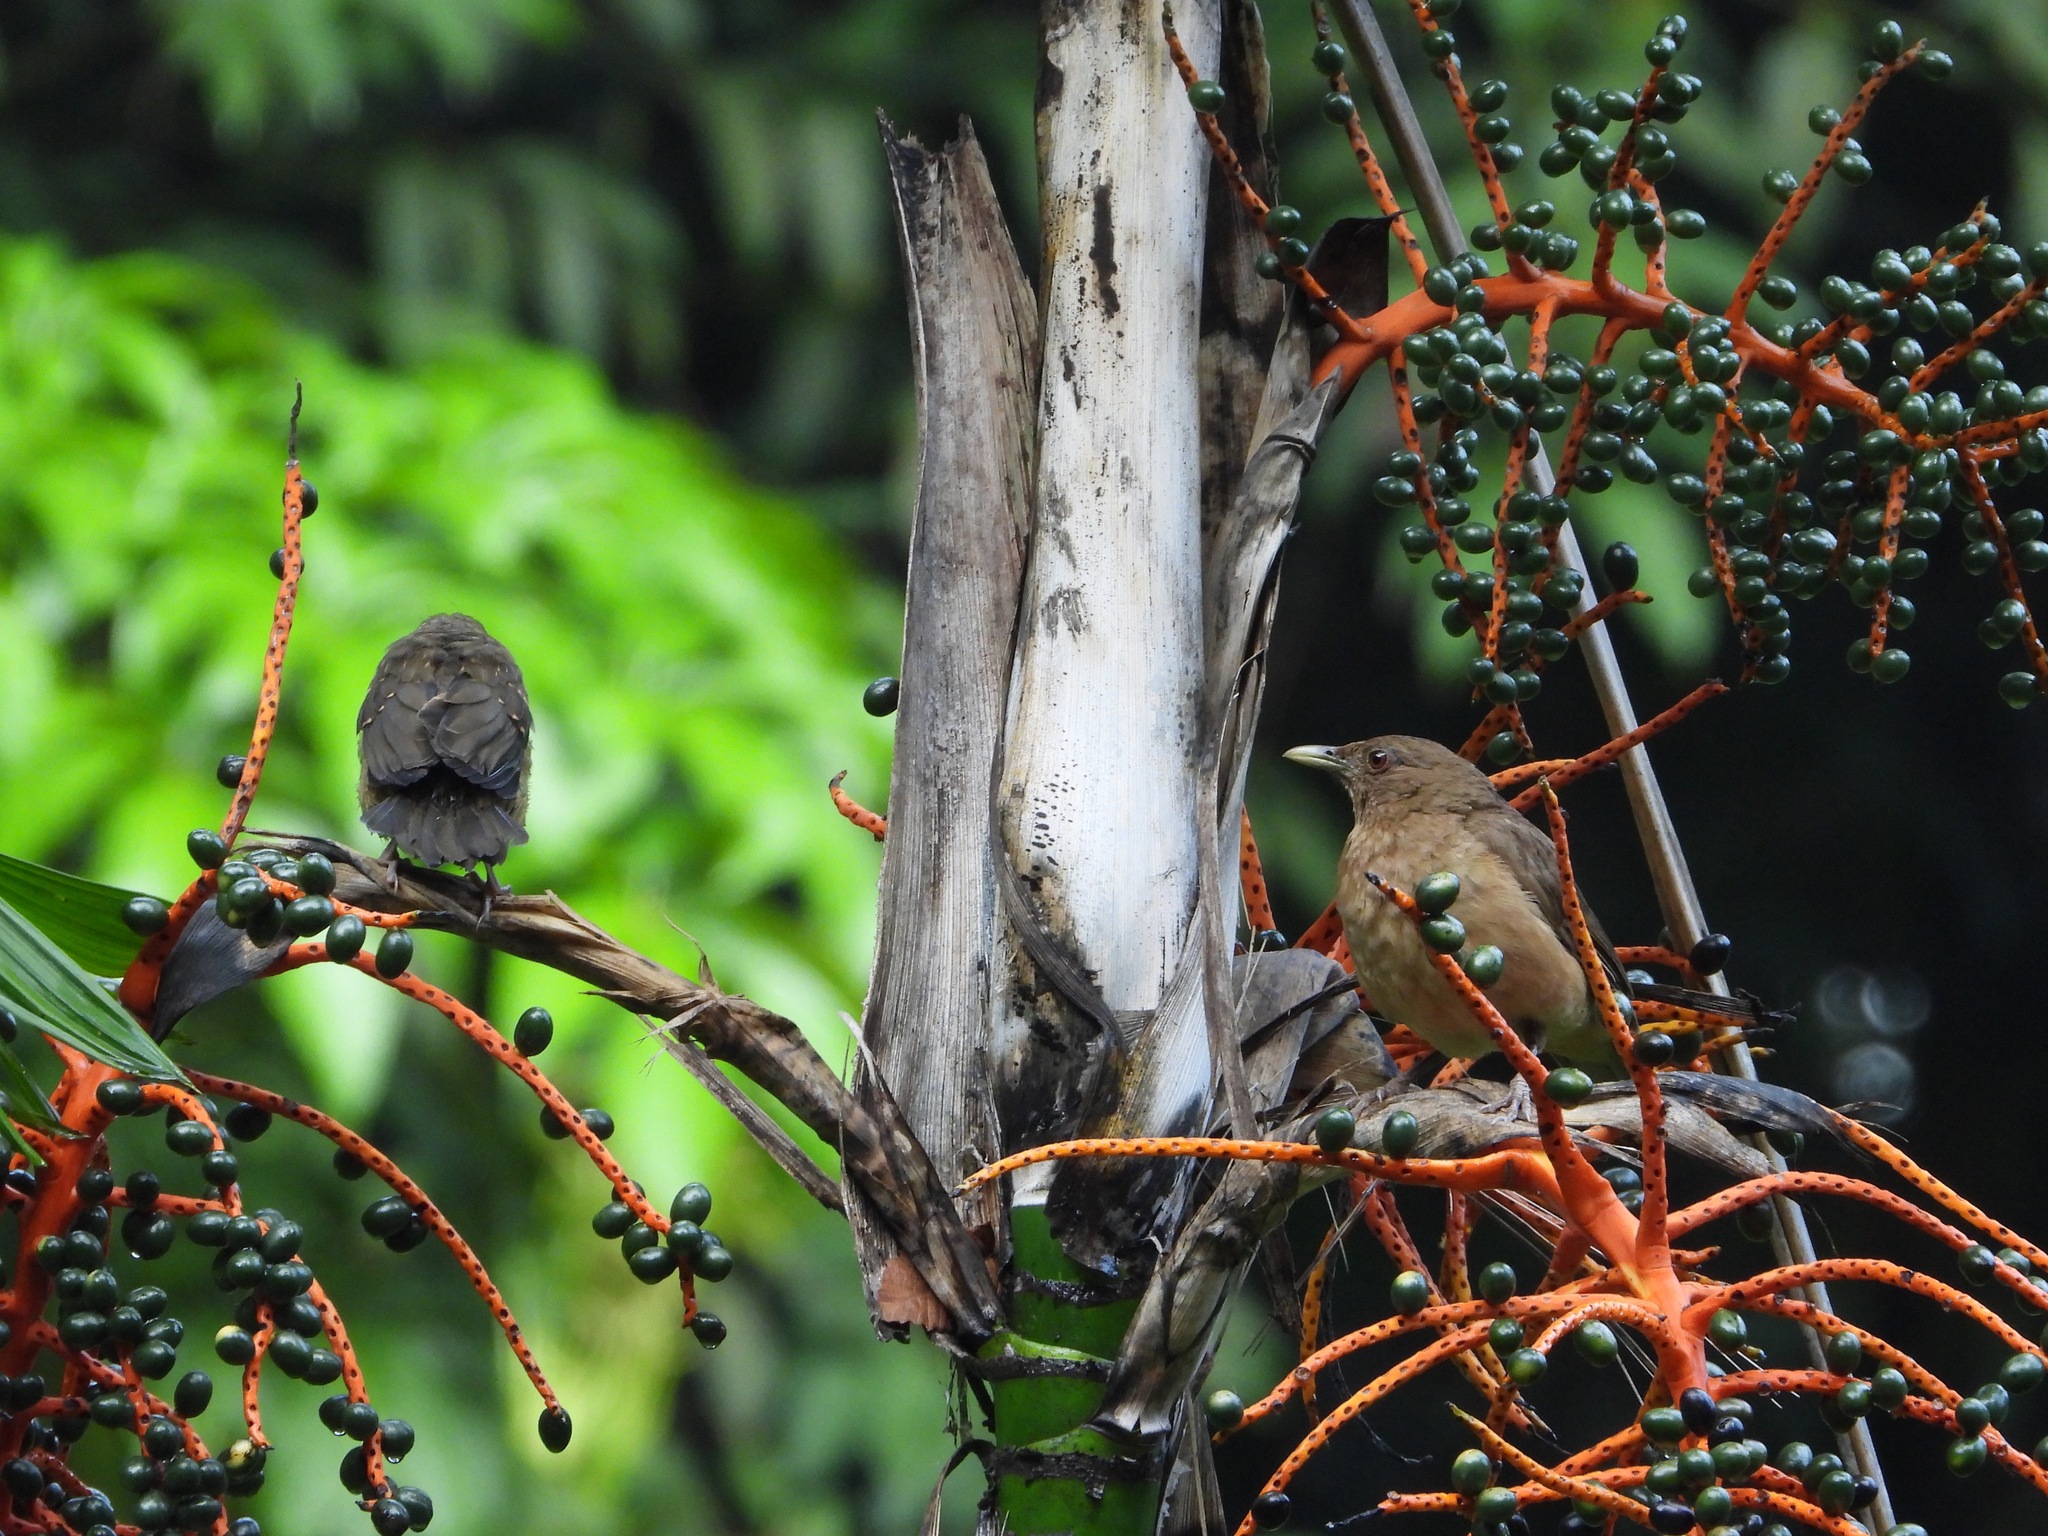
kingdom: Animalia
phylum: Chordata
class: Aves
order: Passeriformes
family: Turdidae
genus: Turdus
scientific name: Turdus grayi
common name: Clay-colored thrush
